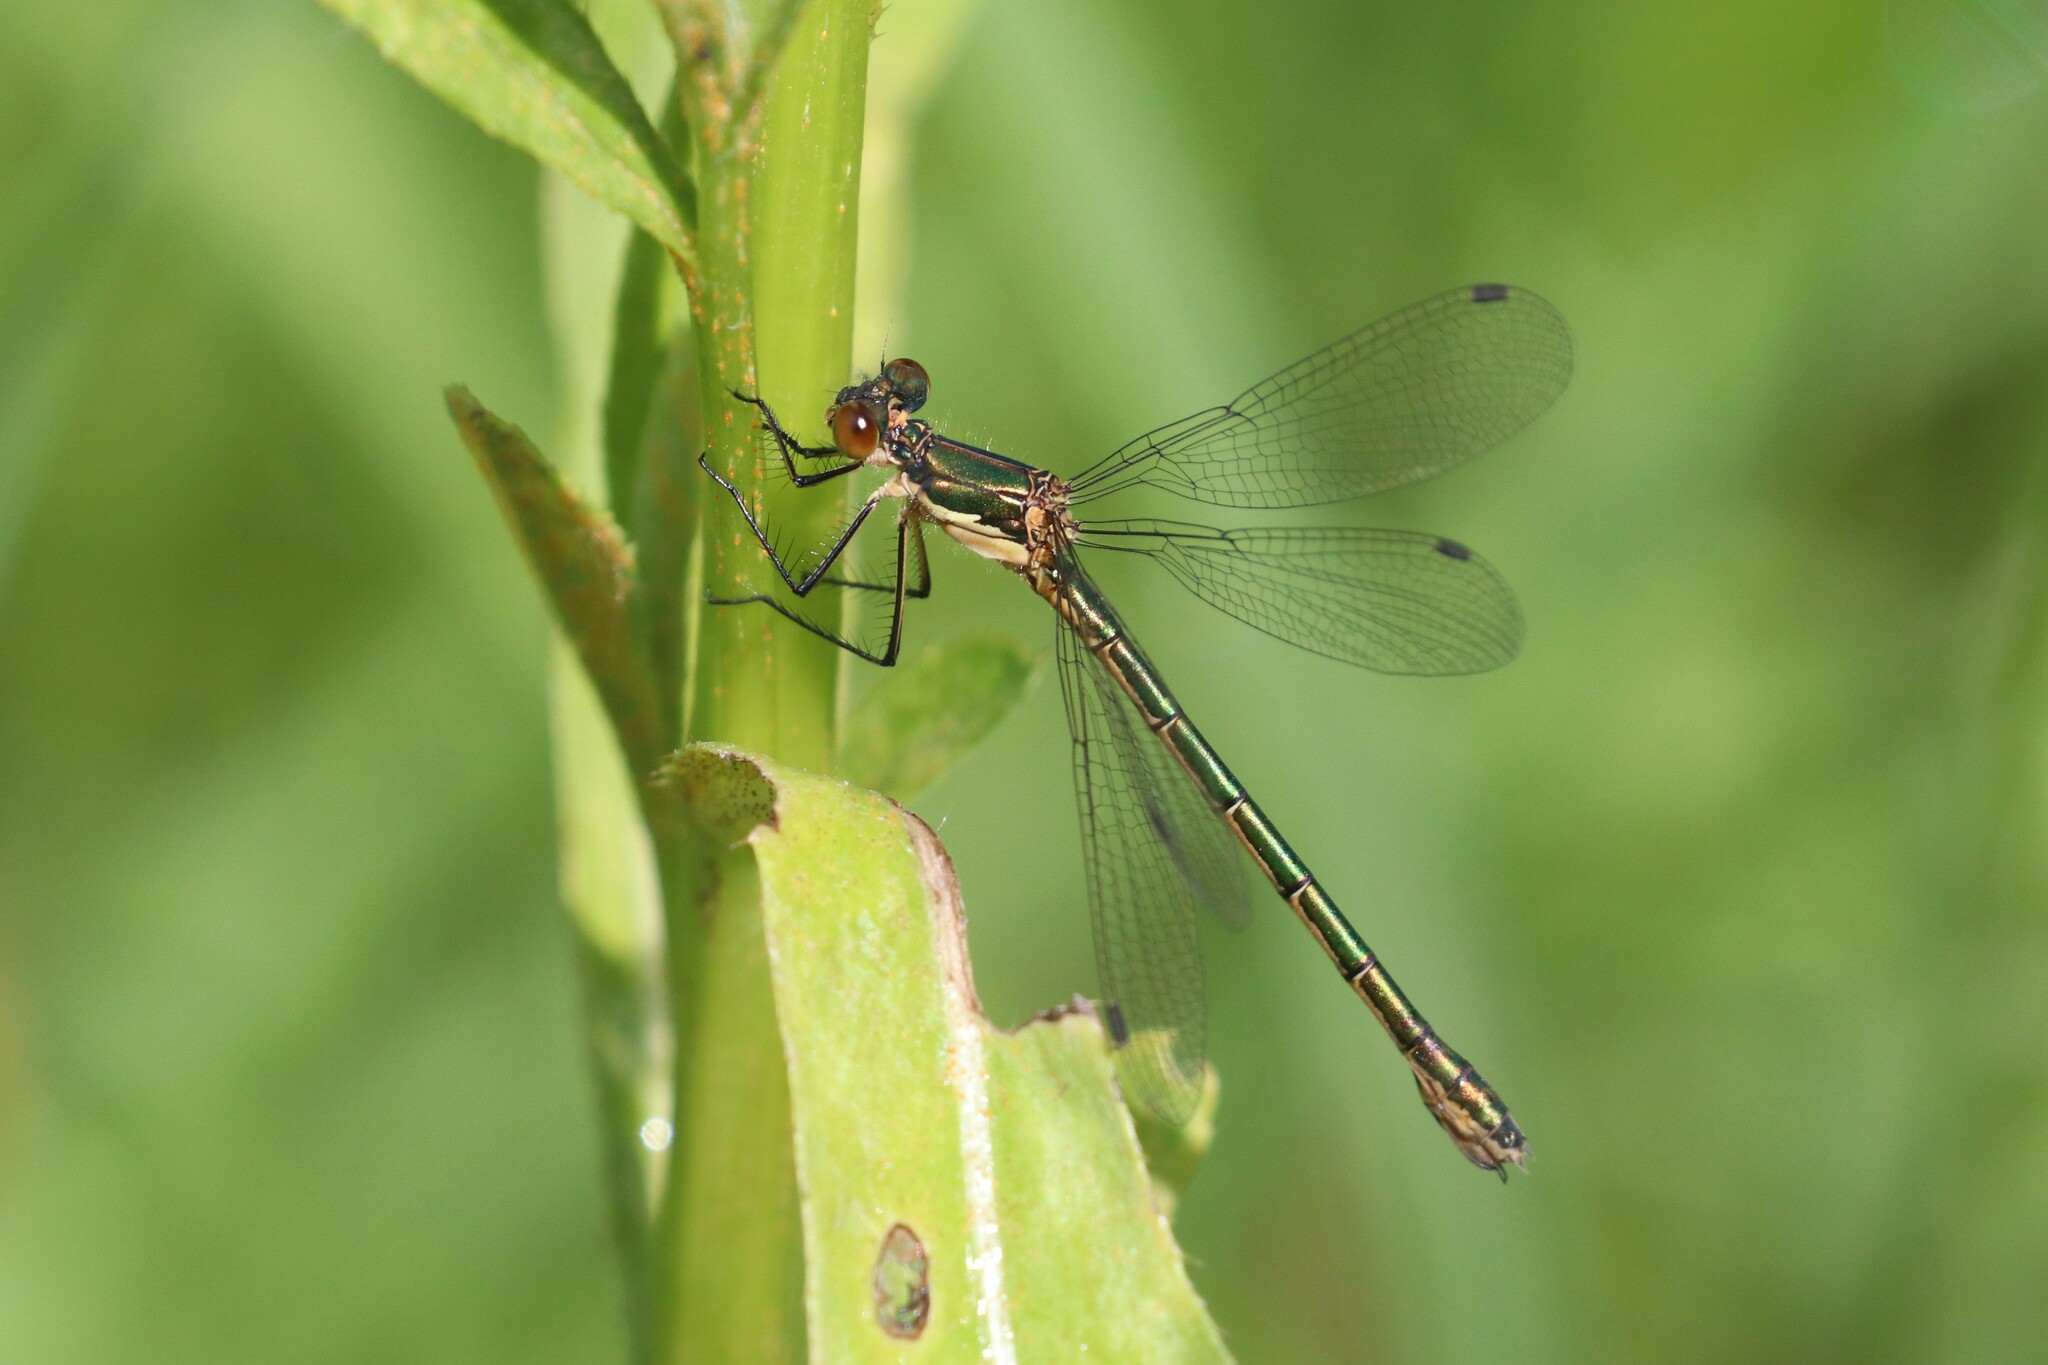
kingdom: Animalia
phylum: Arthropoda
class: Insecta
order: Odonata
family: Lestidae
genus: Lestes
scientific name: Lestes dryas
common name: Scarce emerald damselfly
